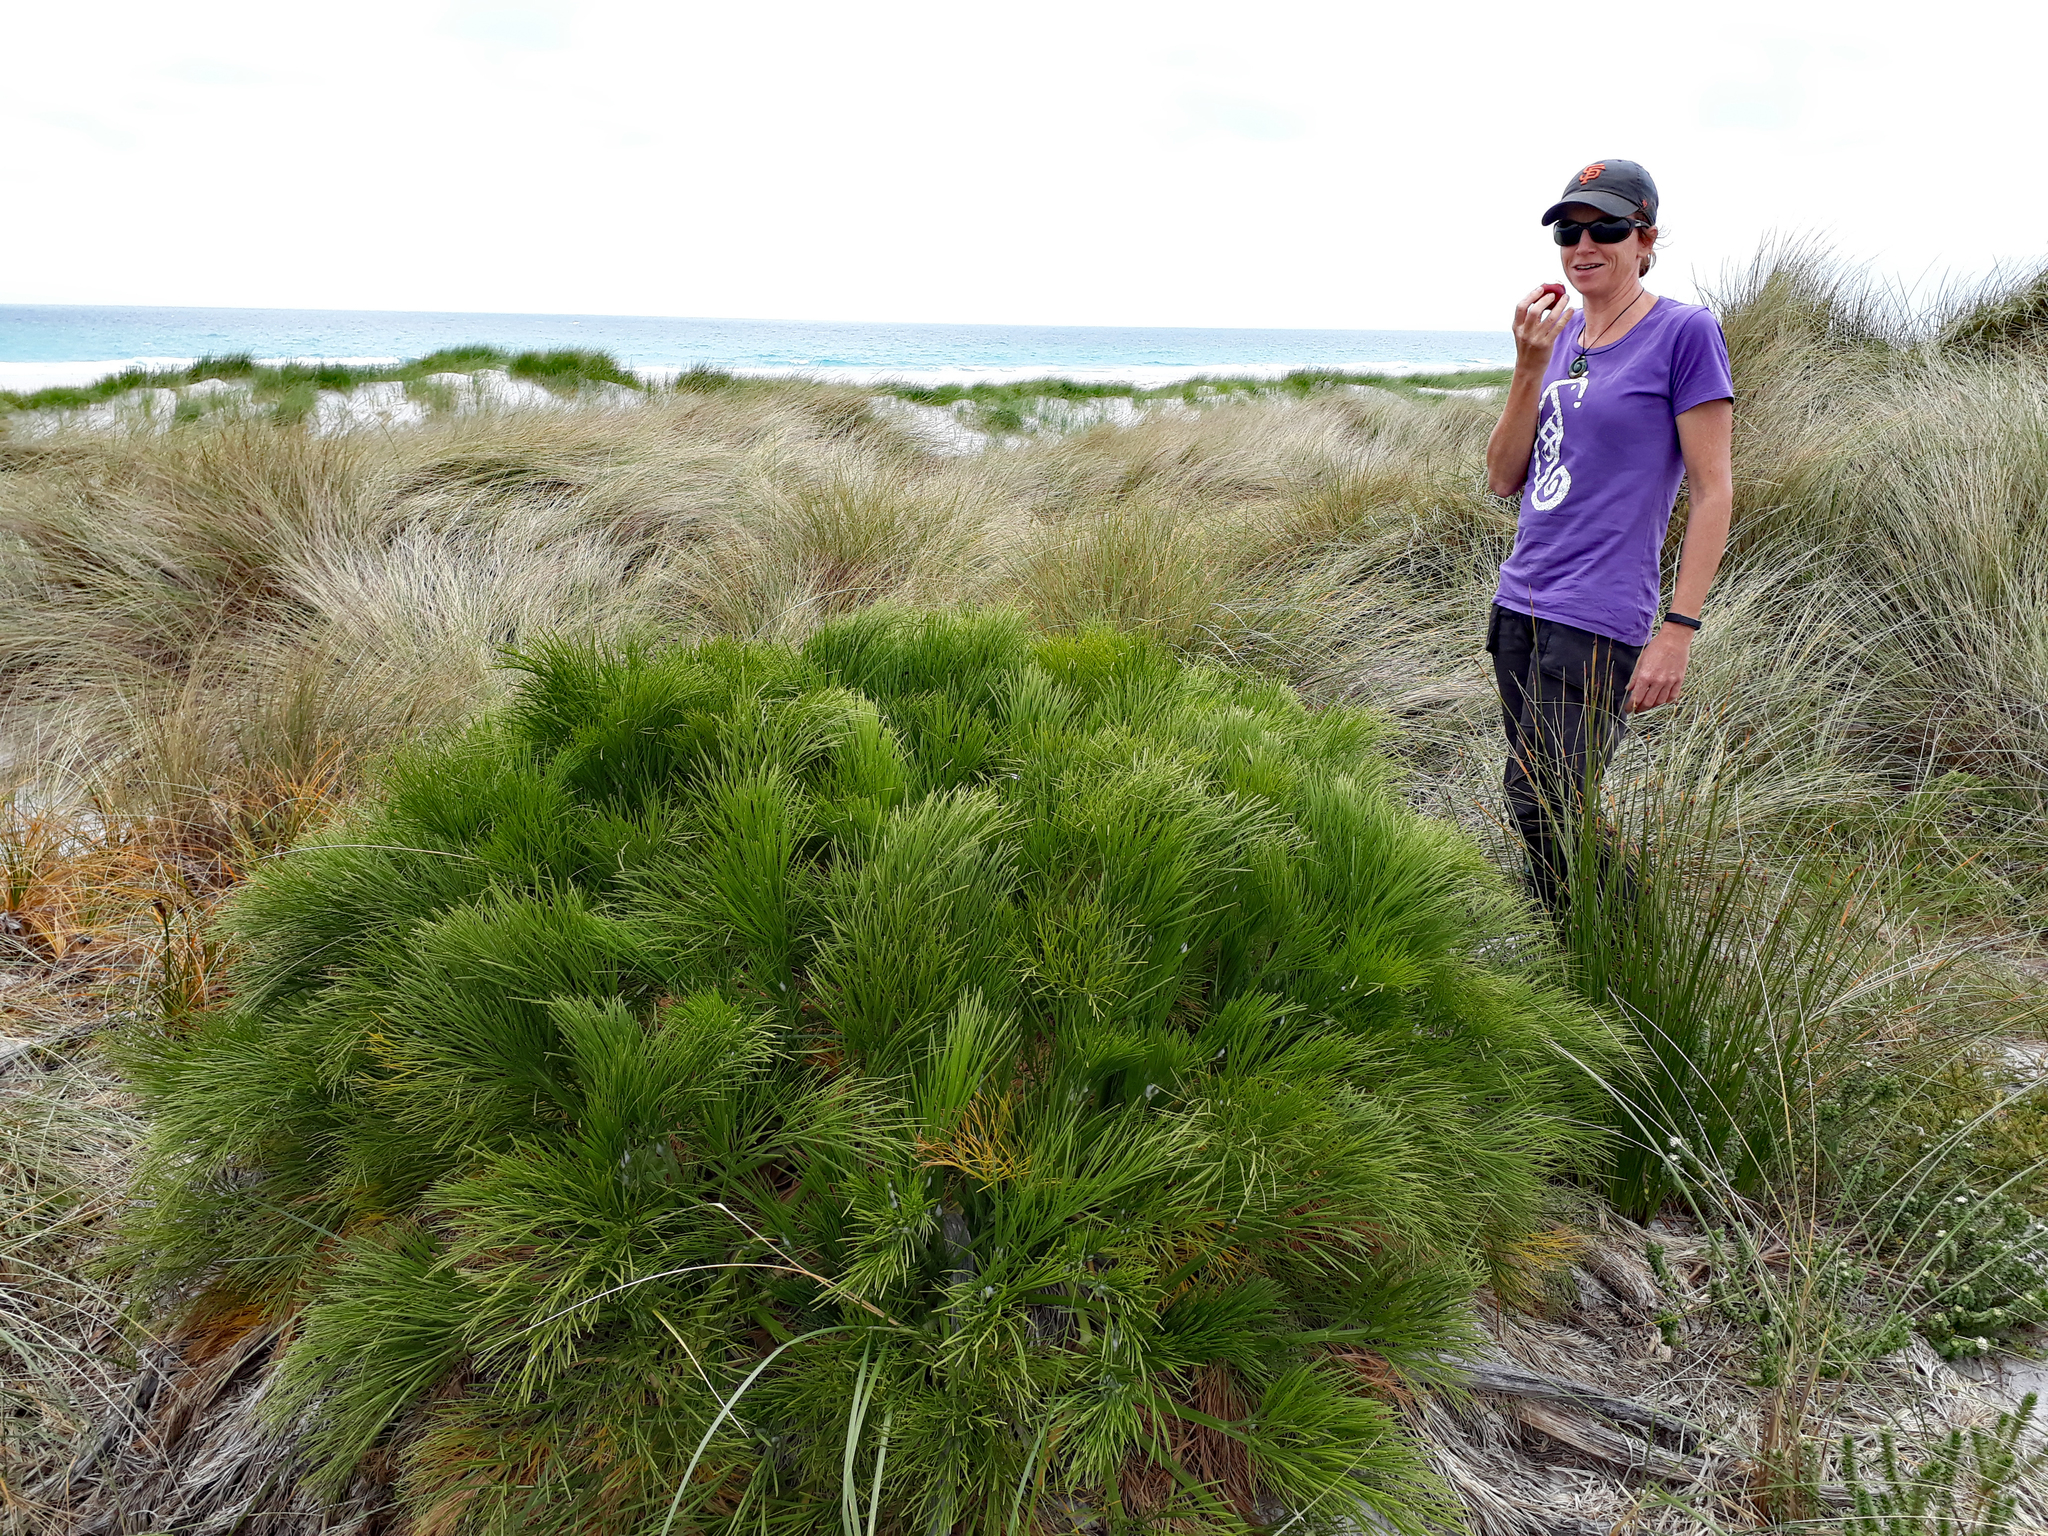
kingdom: Plantae
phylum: Tracheophyta
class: Magnoliopsida
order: Apiales
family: Apiaceae
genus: Aciphylla
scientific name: Aciphylla dieffenbachii
